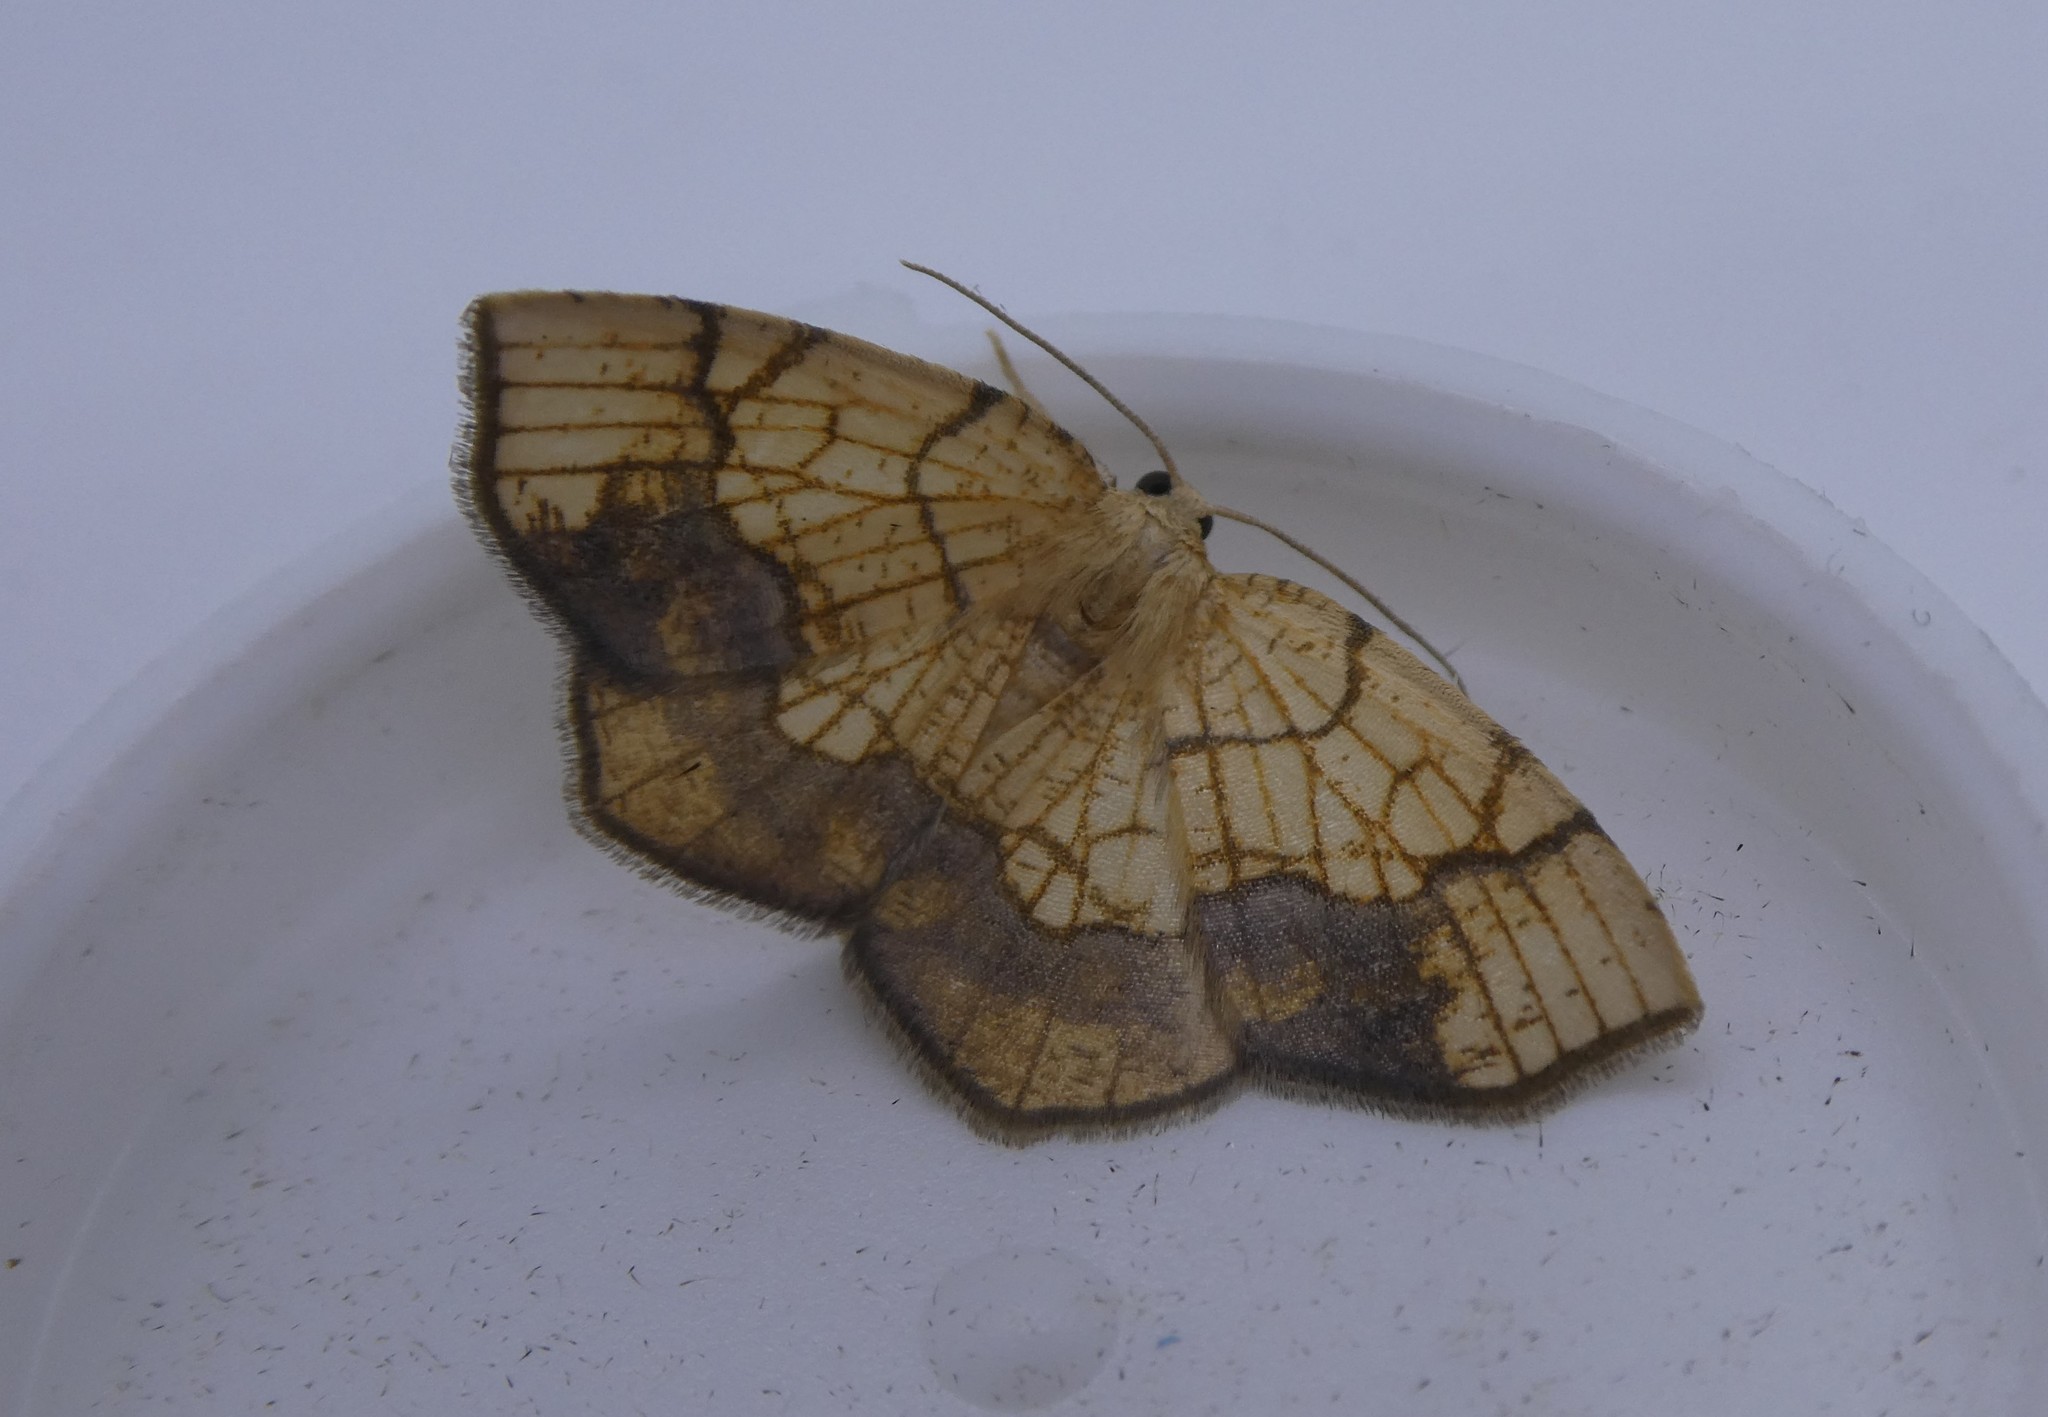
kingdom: Animalia
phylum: Arthropoda
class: Insecta
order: Lepidoptera
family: Geometridae
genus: Nematocampa
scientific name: Nematocampa resistaria
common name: Horned spanworm moth
